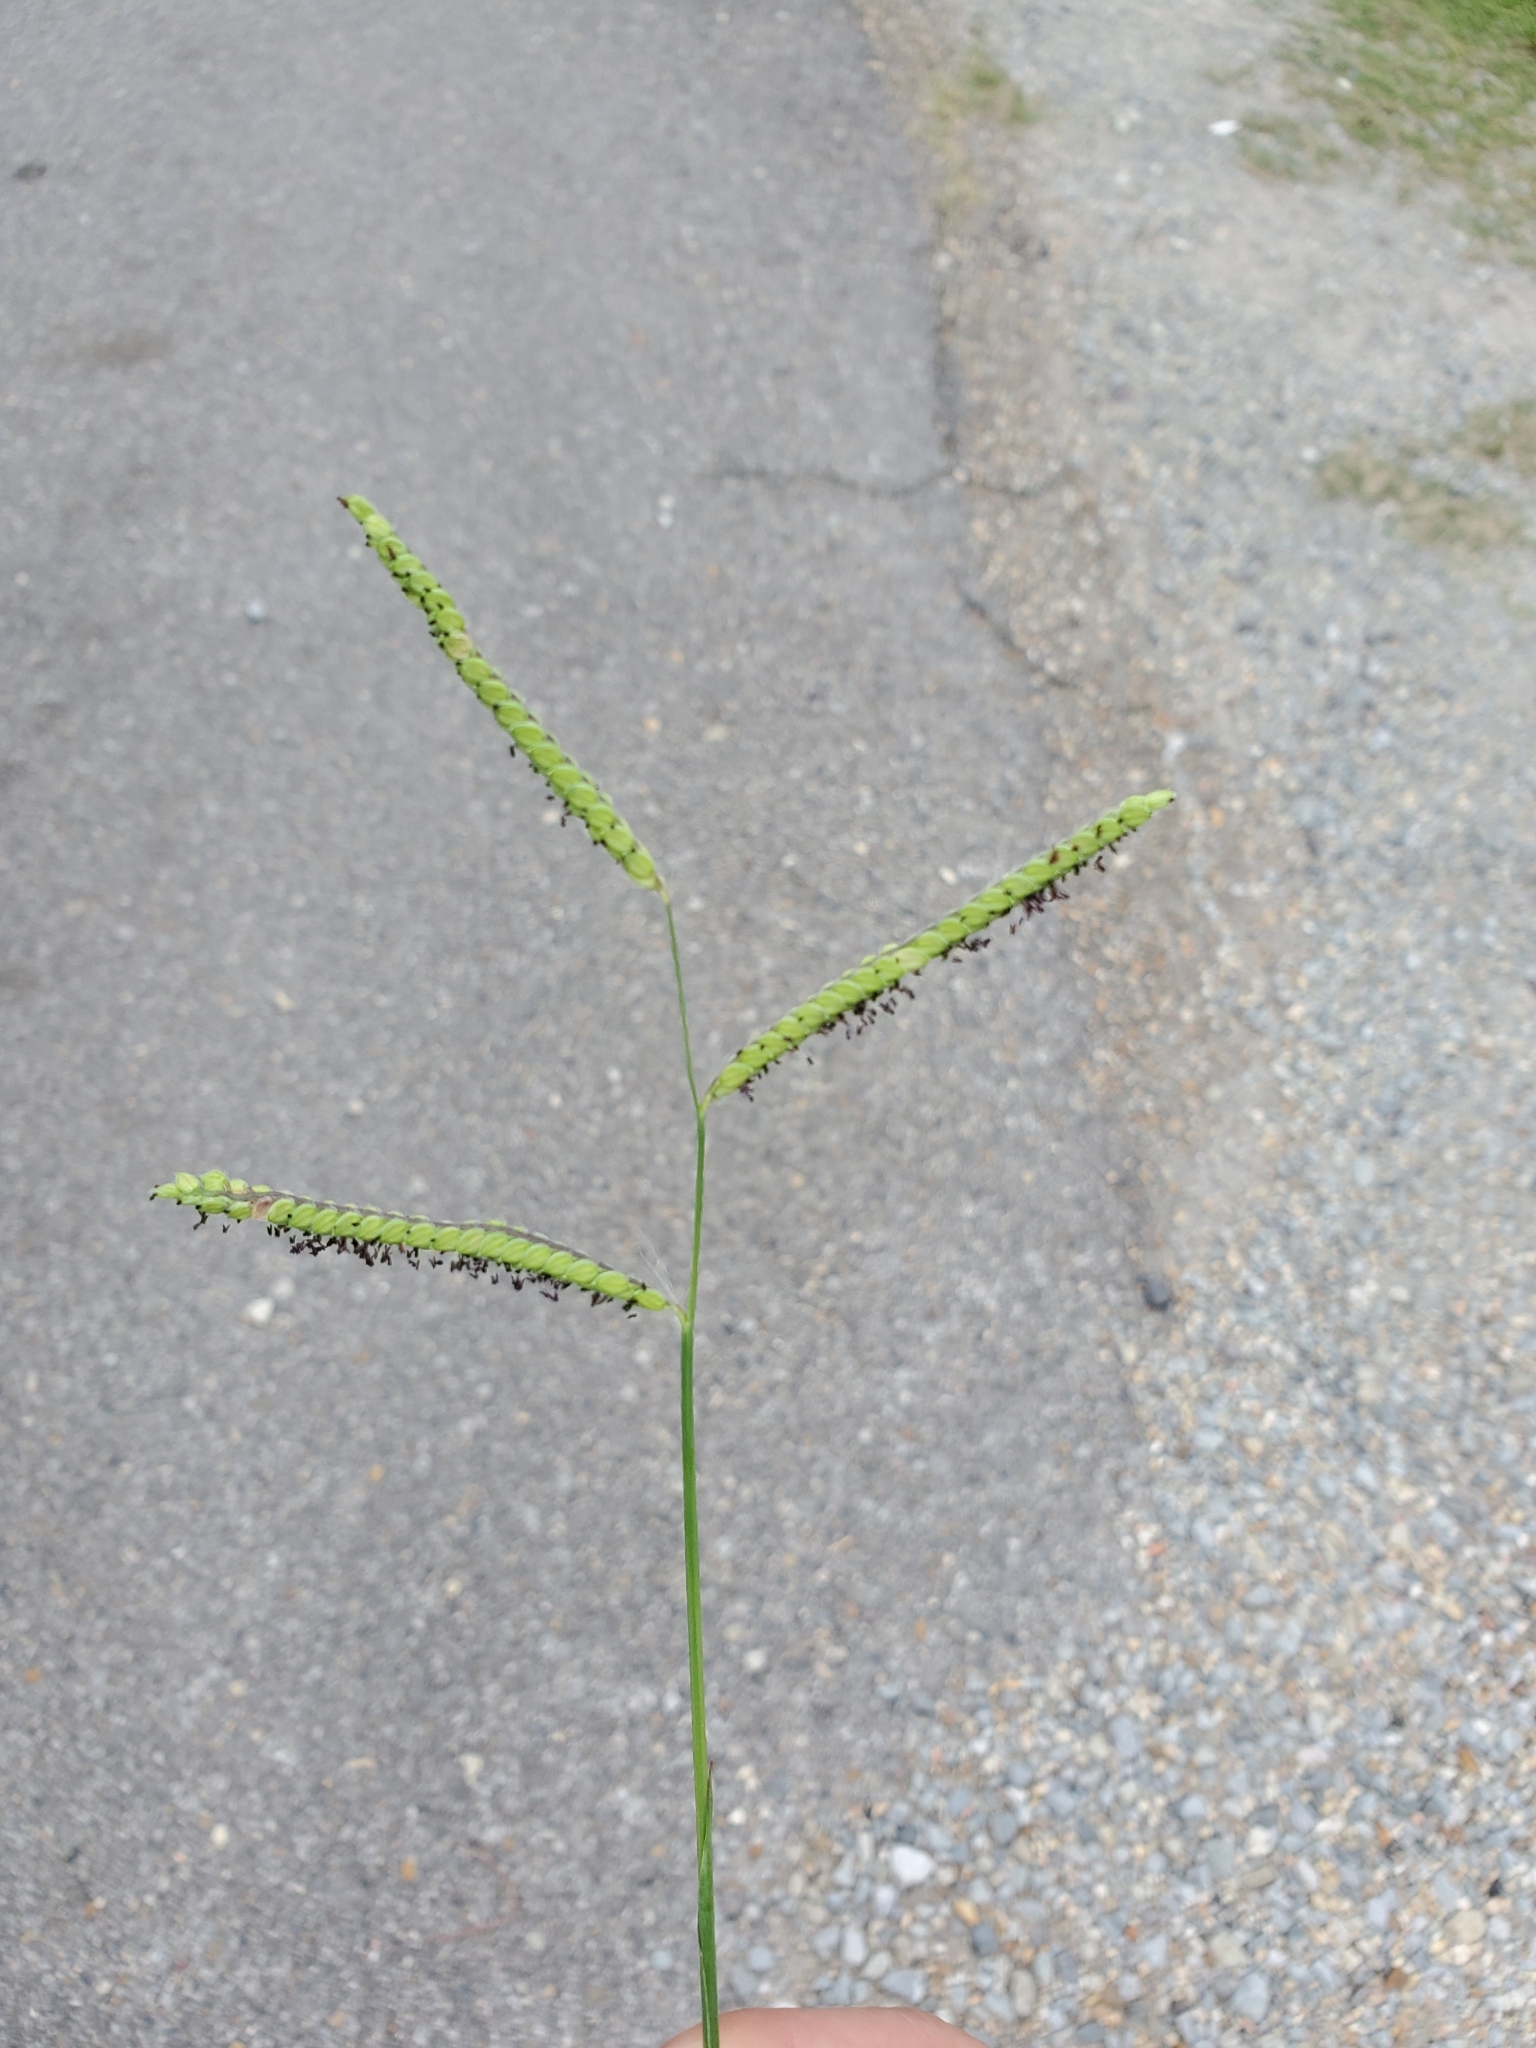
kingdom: Plantae
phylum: Tracheophyta
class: Liliopsida
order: Poales
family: Poaceae
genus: Paspalum
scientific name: Paspalum dilatatum
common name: Dallisgrass
